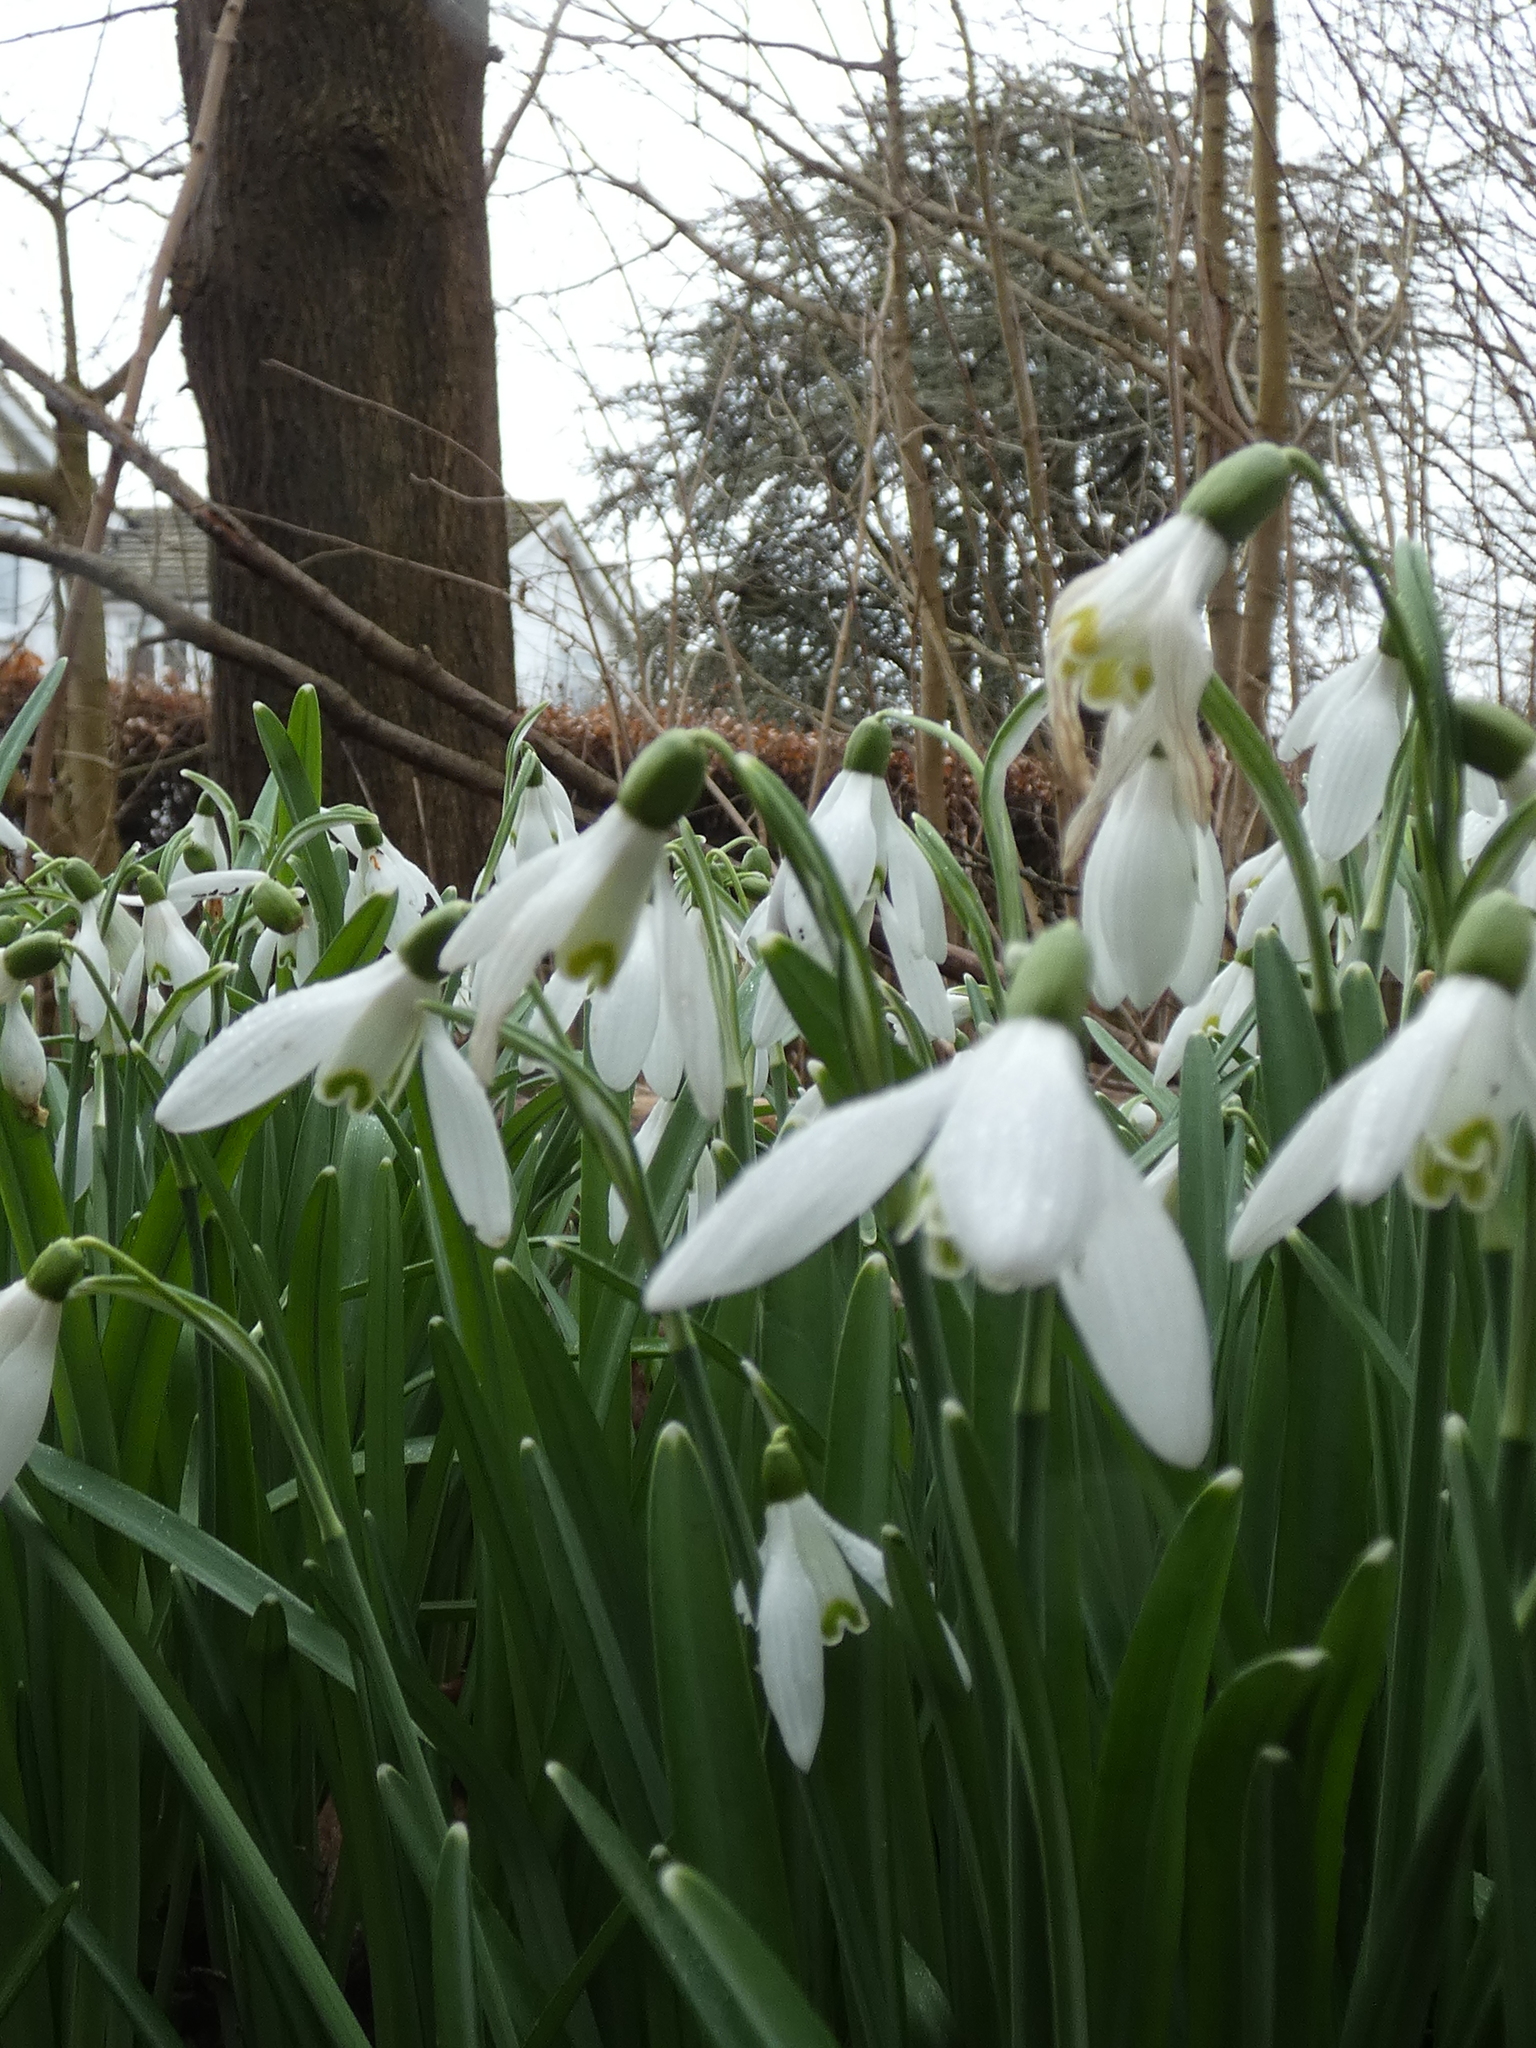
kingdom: Plantae
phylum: Tracheophyta
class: Liliopsida
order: Asparagales
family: Amaryllidaceae
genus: Galanthus
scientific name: Galanthus nivalis
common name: Snowdrop
